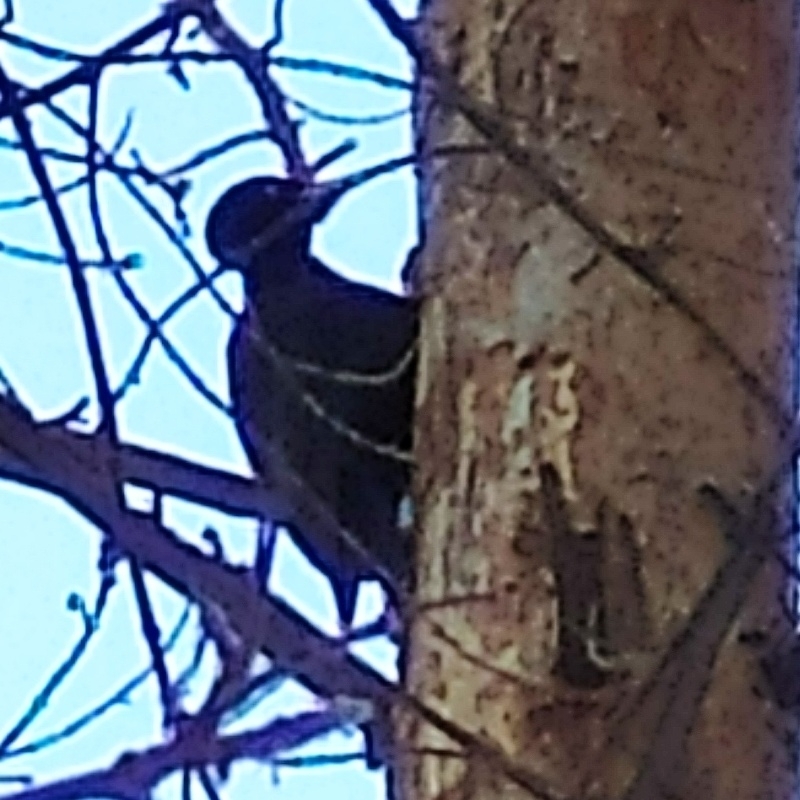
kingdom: Animalia
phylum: Chordata
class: Aves
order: Piciformes
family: Picidae
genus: Dryocopus
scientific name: Dryocopus martius
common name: Black woodpecker
